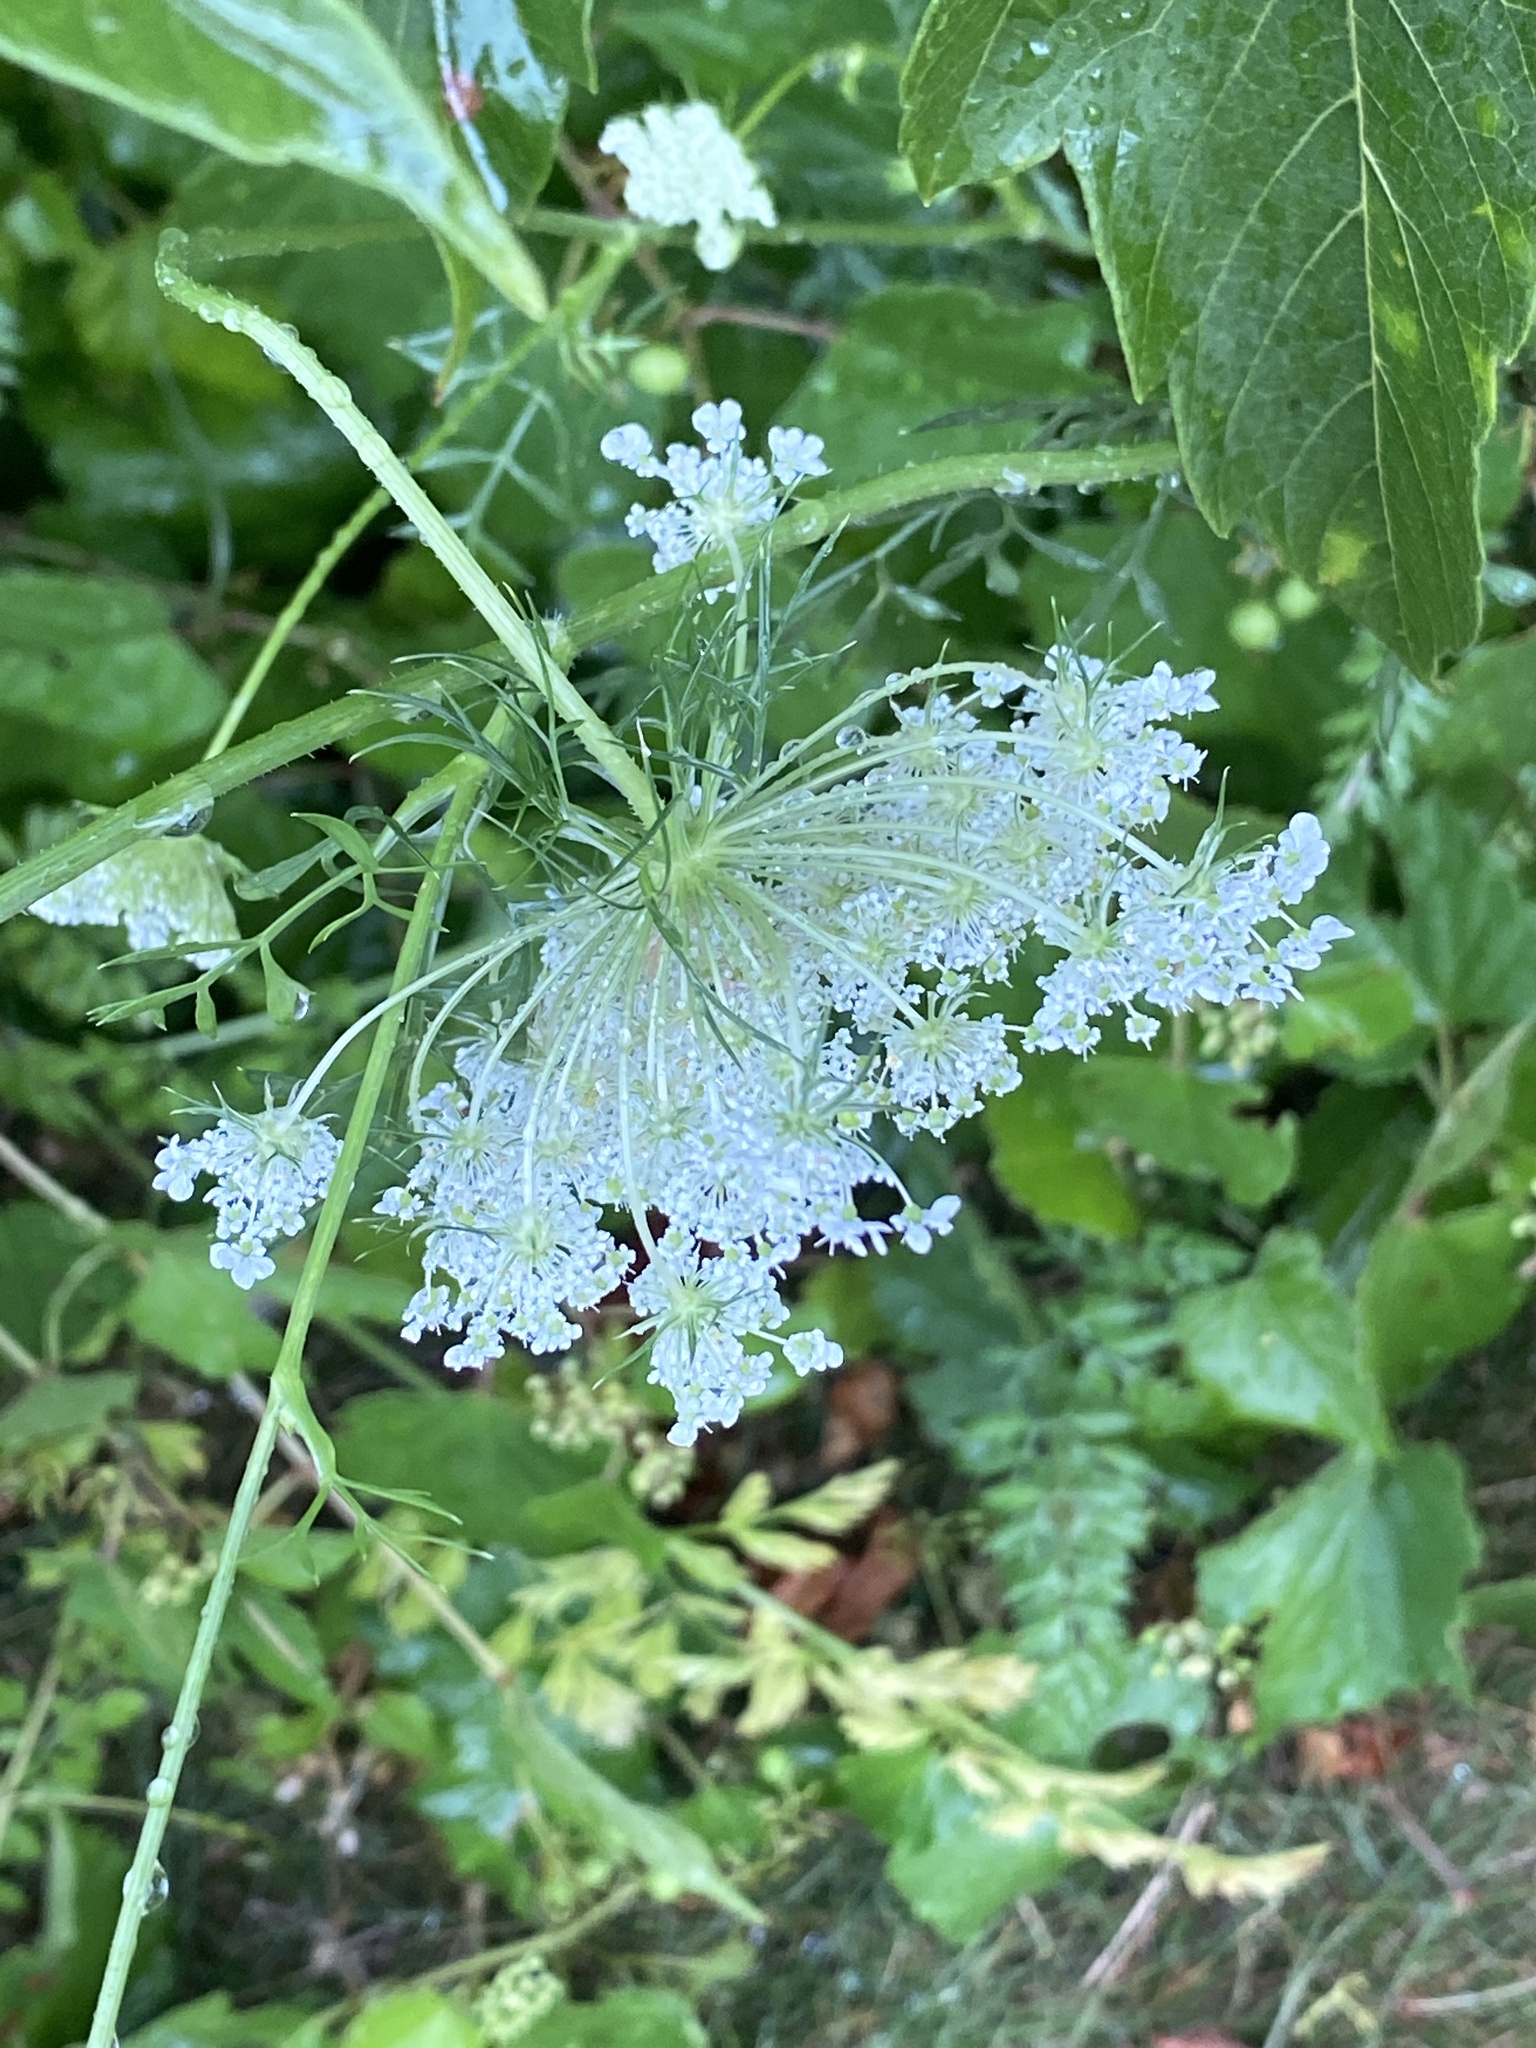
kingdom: Plantae
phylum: Tracheophyta
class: Magnoliopsida
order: Apiales
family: Apiaceae
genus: Daucus
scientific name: Daucus carota
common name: Wild carrot
